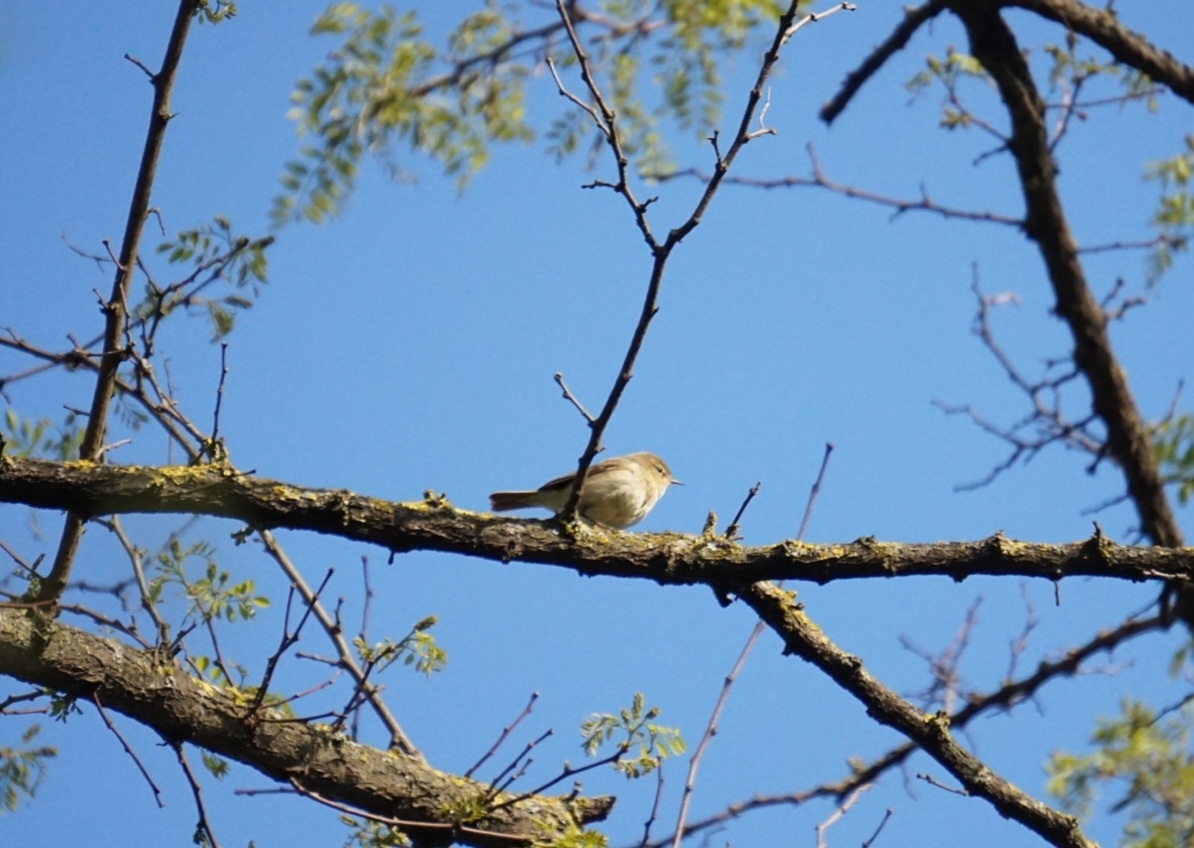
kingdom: Animalia
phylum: Chordata
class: Aves
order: Passeriformes
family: Phylloscopidae
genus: Phylloscopus
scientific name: Phylloscopus collybita
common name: Common chiffchaff
